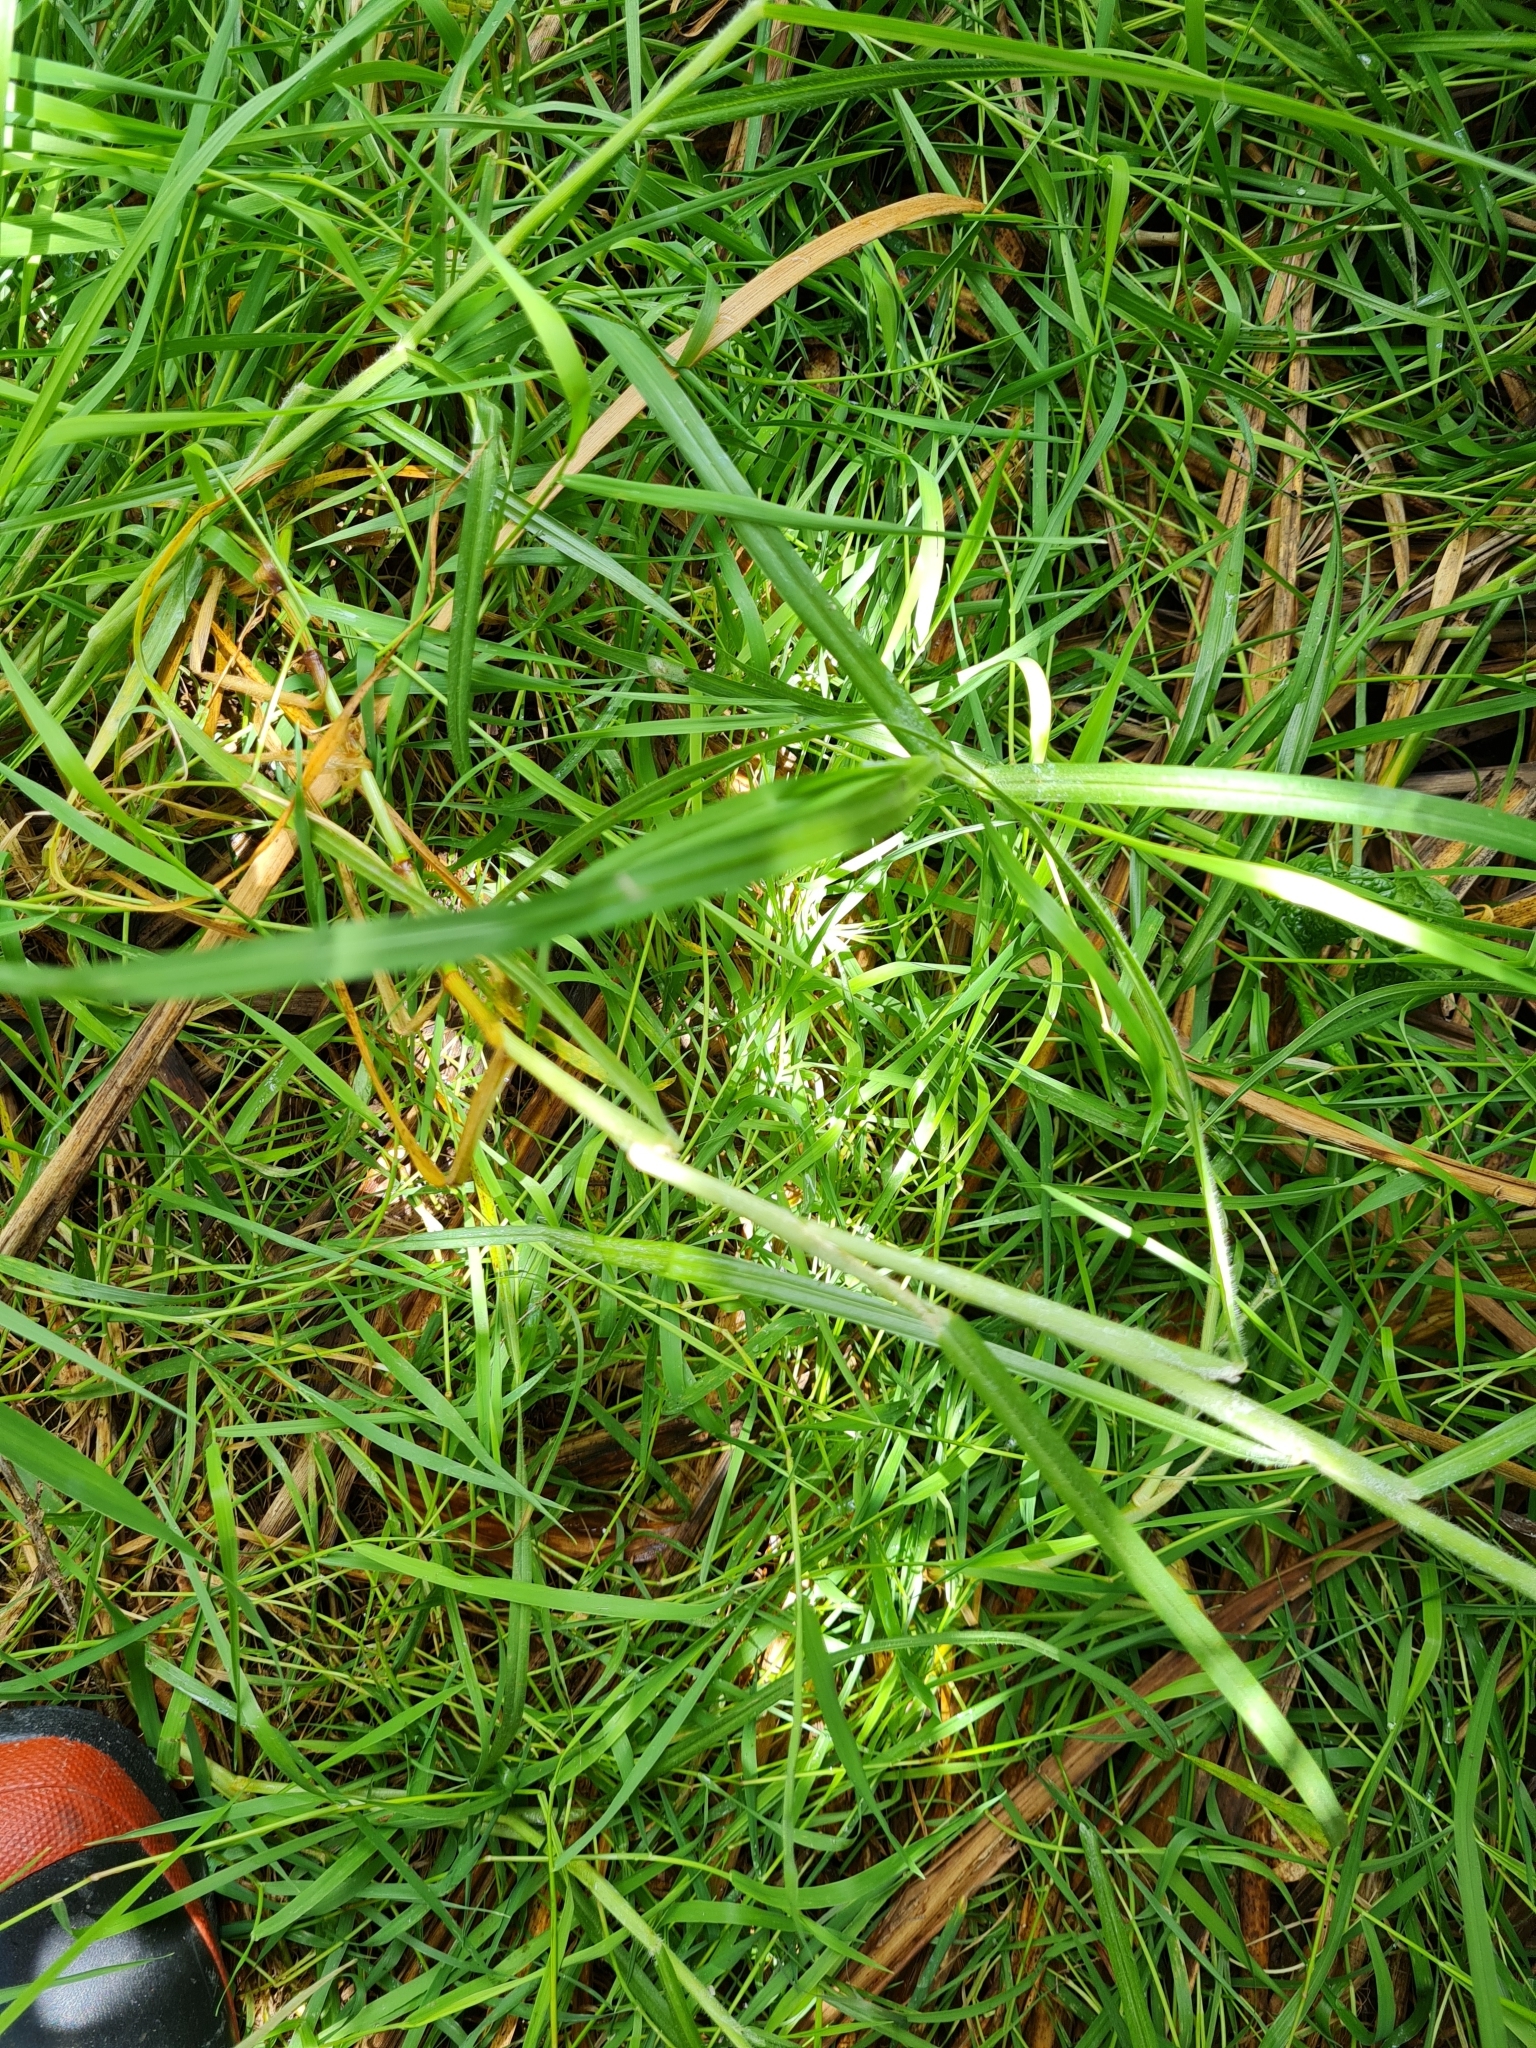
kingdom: Plantae
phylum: Tracheophyta
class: Liliopsida
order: Poales
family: Poaceae
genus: Cenchrus
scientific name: Cenchrus clandestinus
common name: Kikuyugrass
